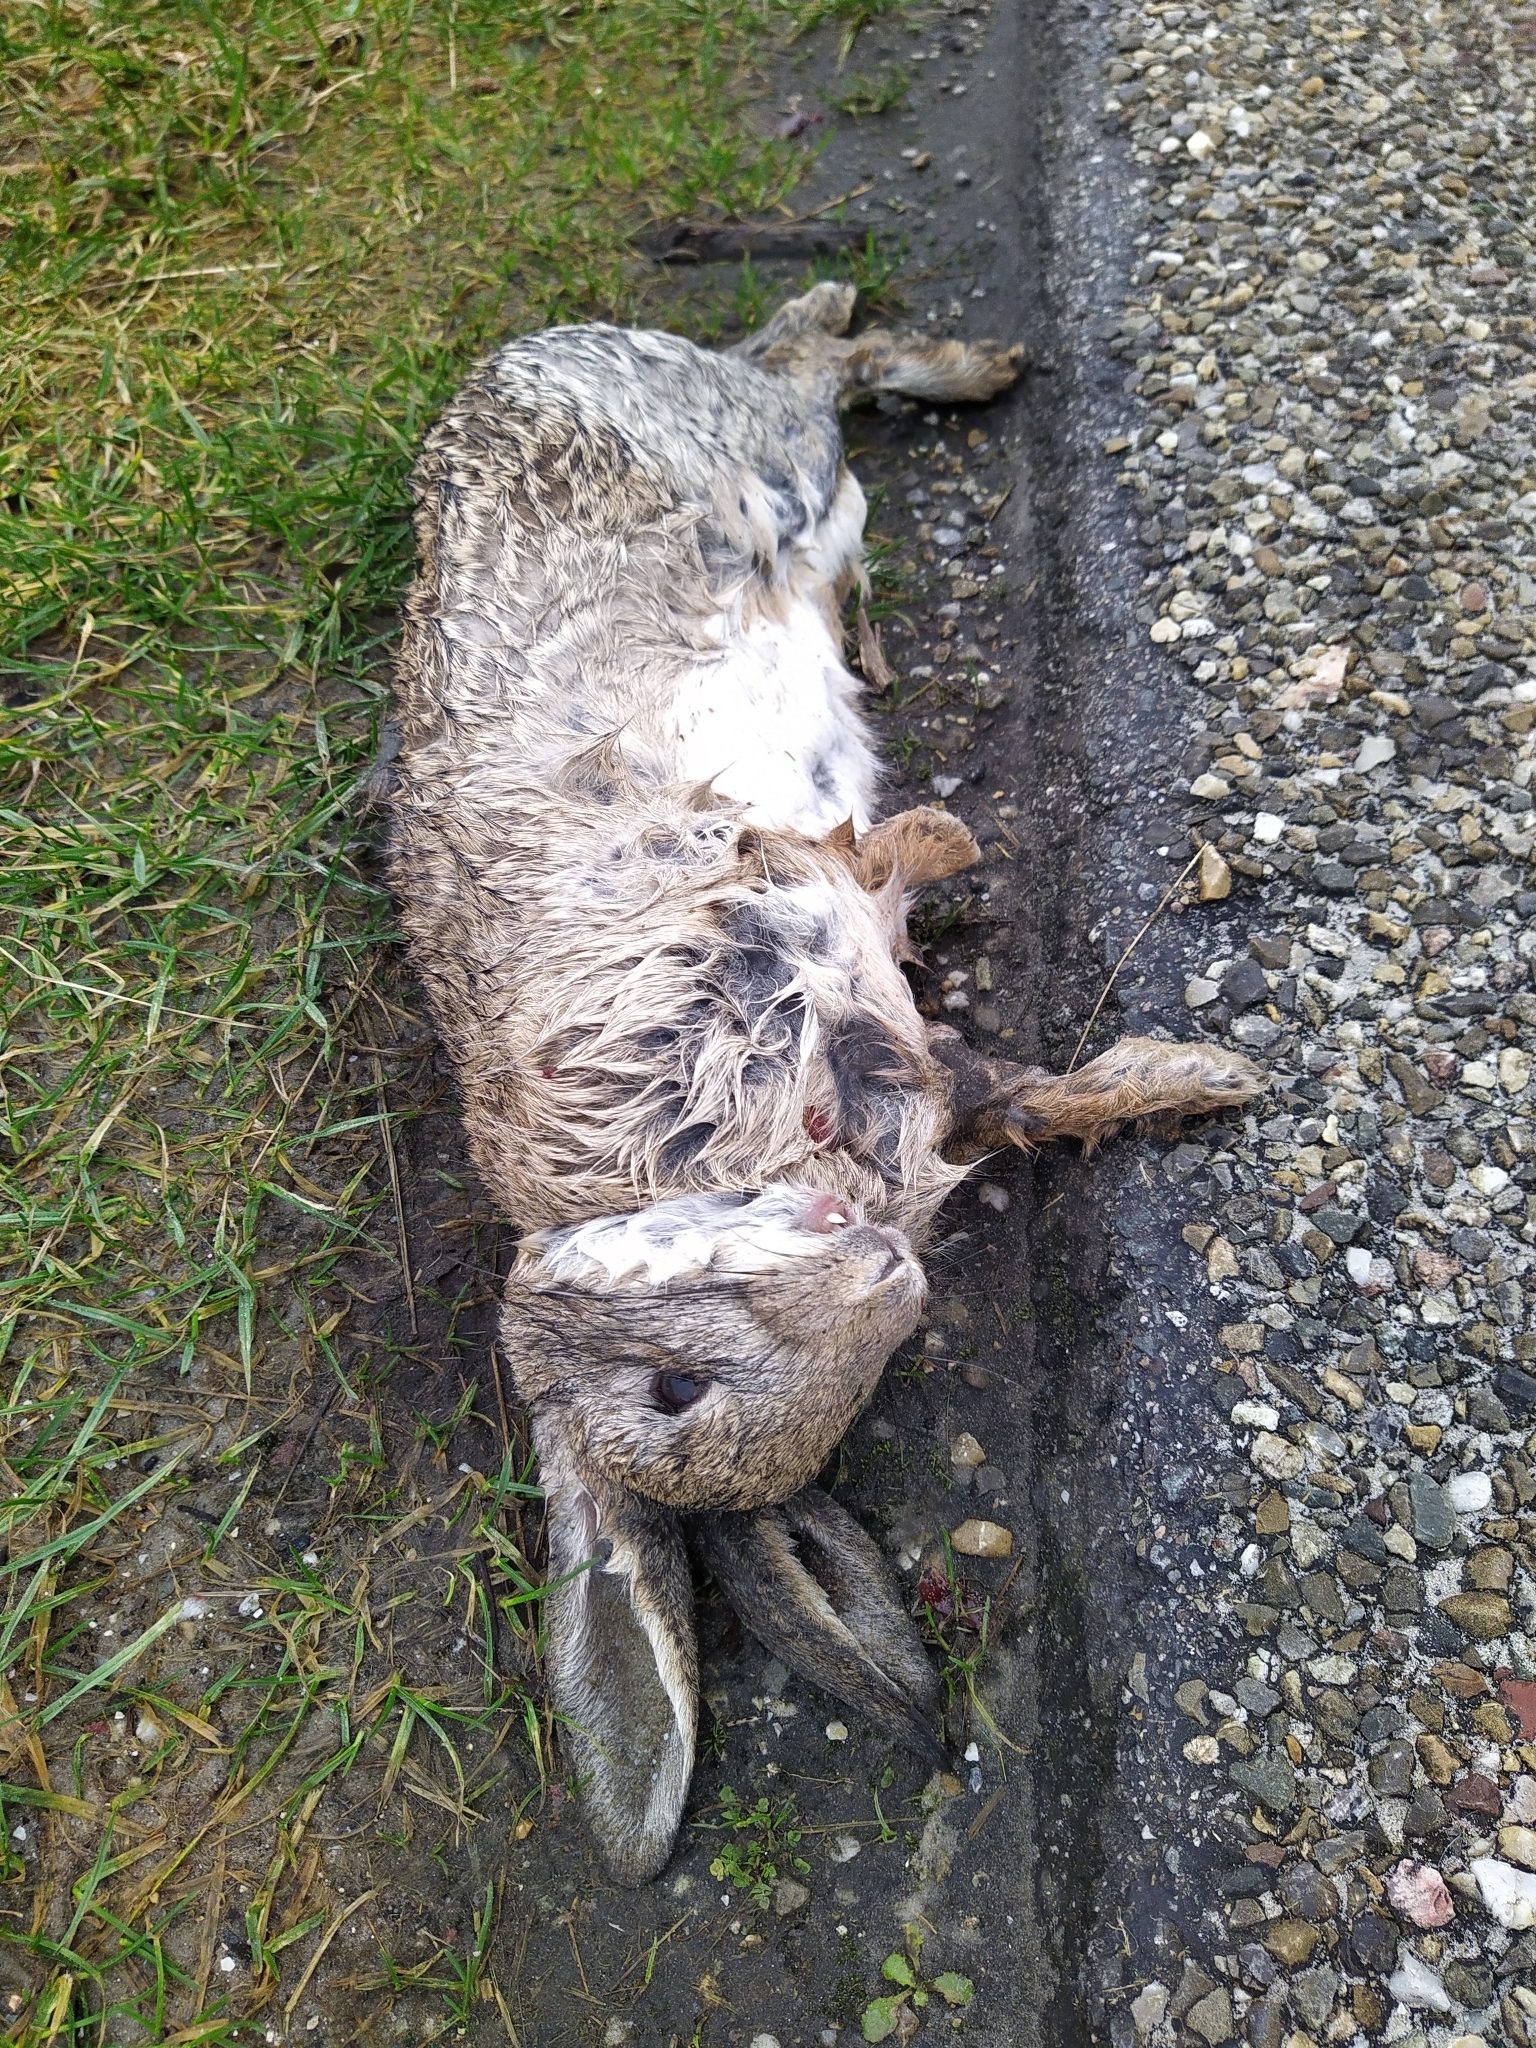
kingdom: Animalia
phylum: Chordata
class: Mammalia
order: Lagomorpha
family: Leporidae
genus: Oryctolagus
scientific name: Oryctolagus cuniculus
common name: European rabbit
